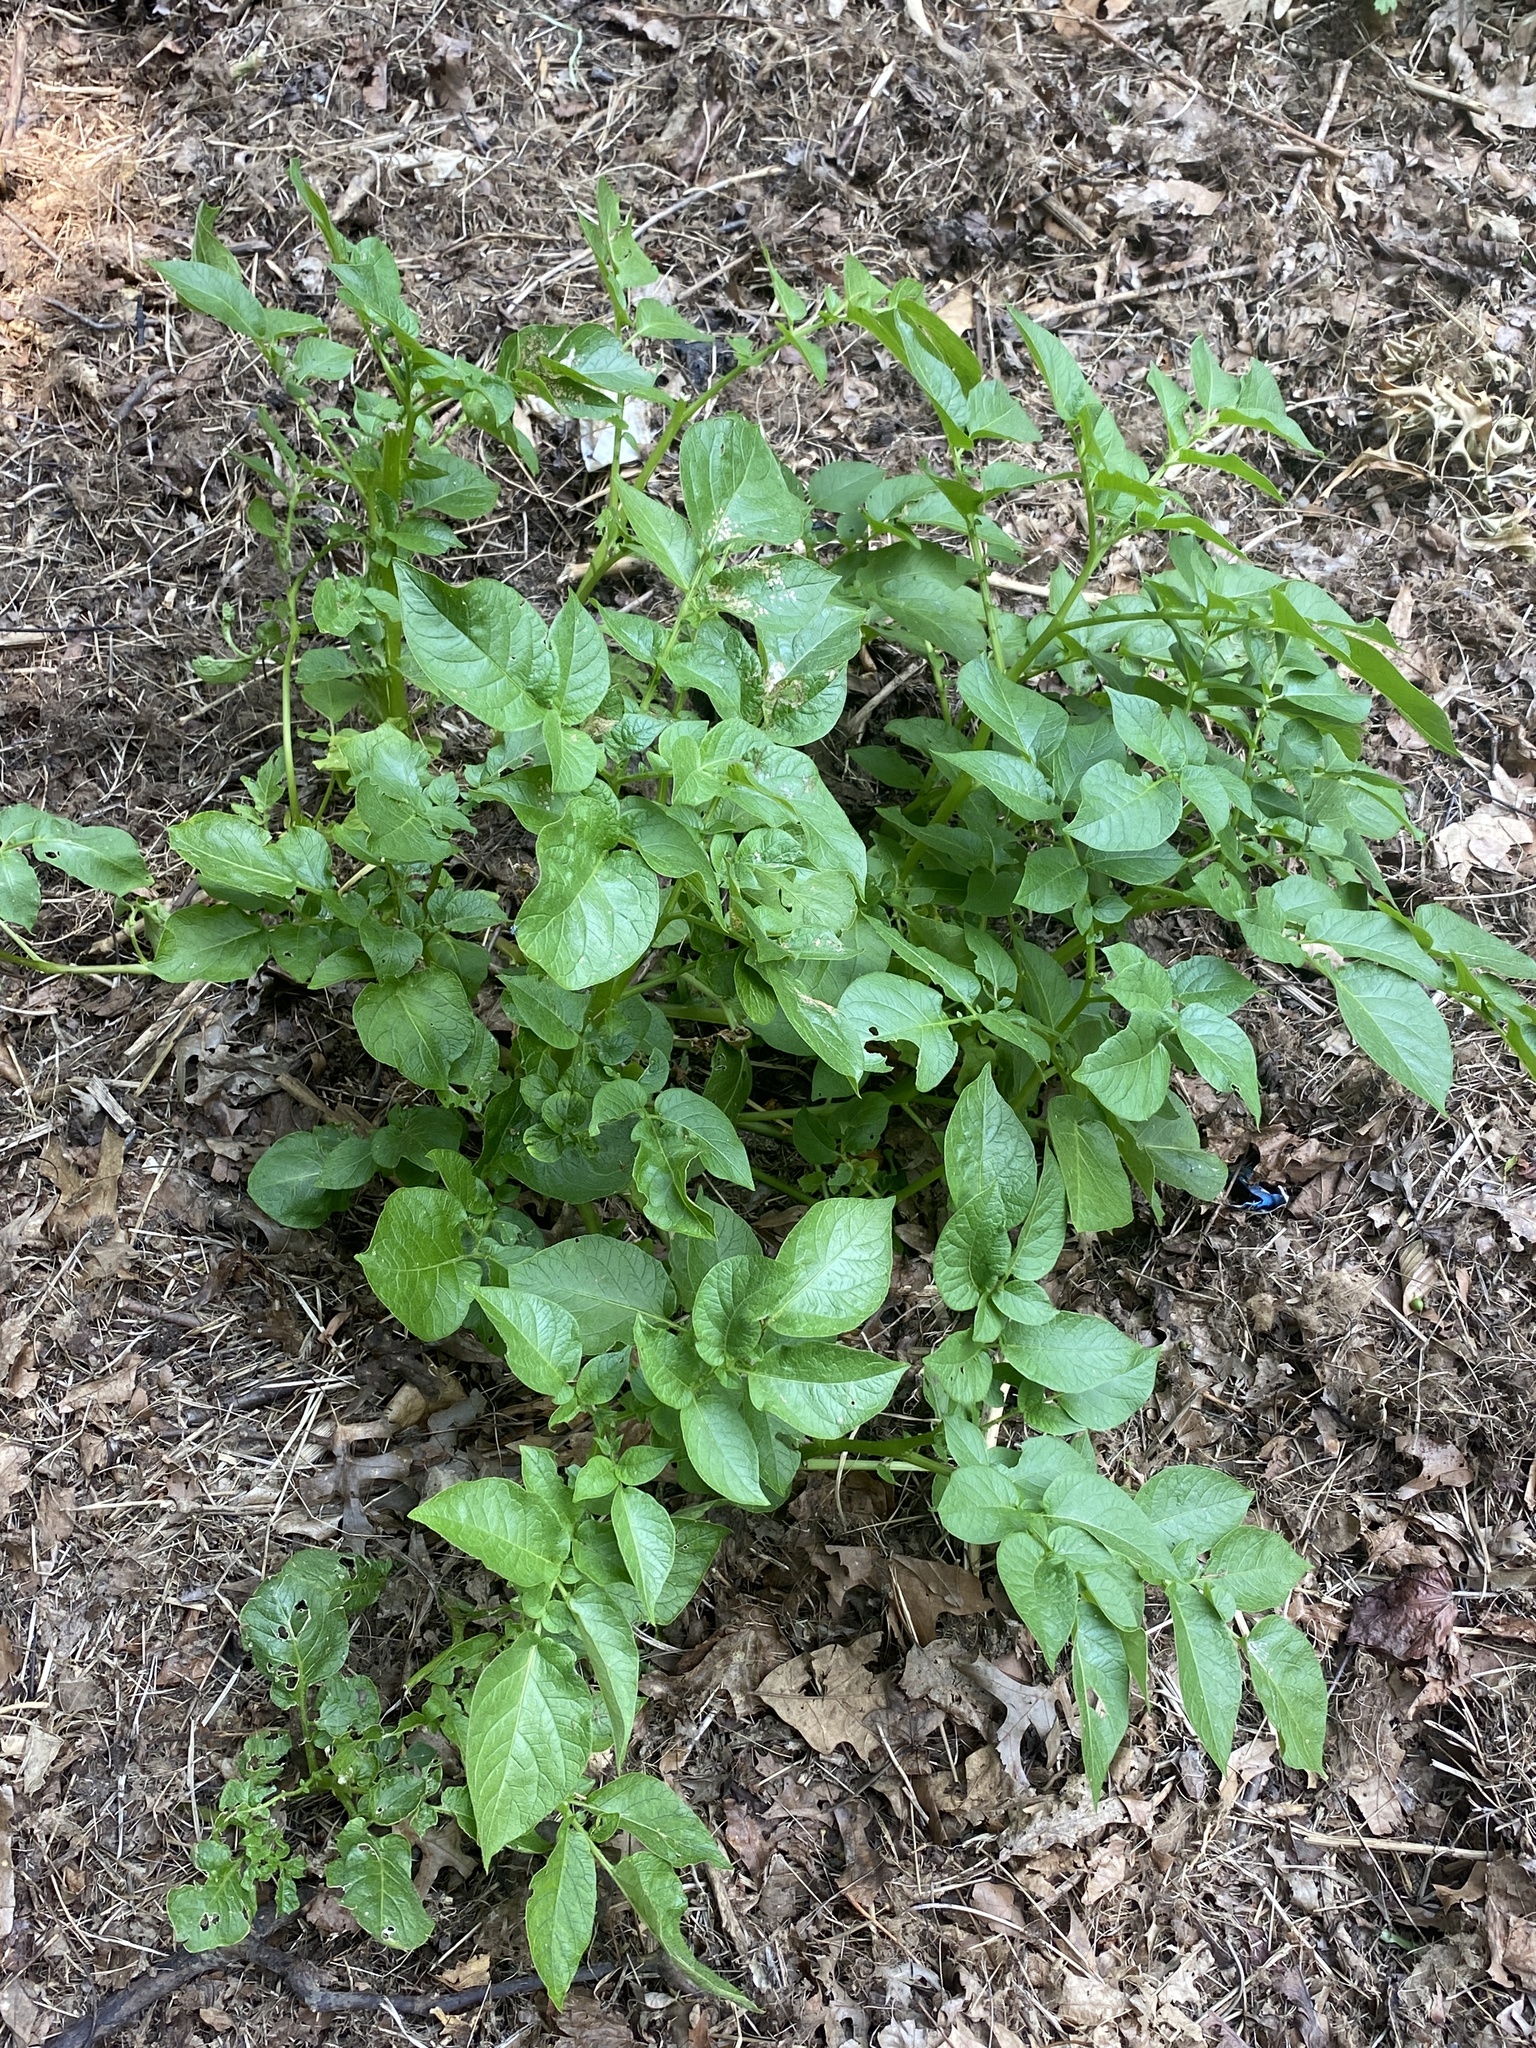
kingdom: Plantae
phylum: Tracheophyta
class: Magnoliopsida
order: Solanales
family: Solanaceae
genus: Solanum
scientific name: Solanum tuberosum
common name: Potato
